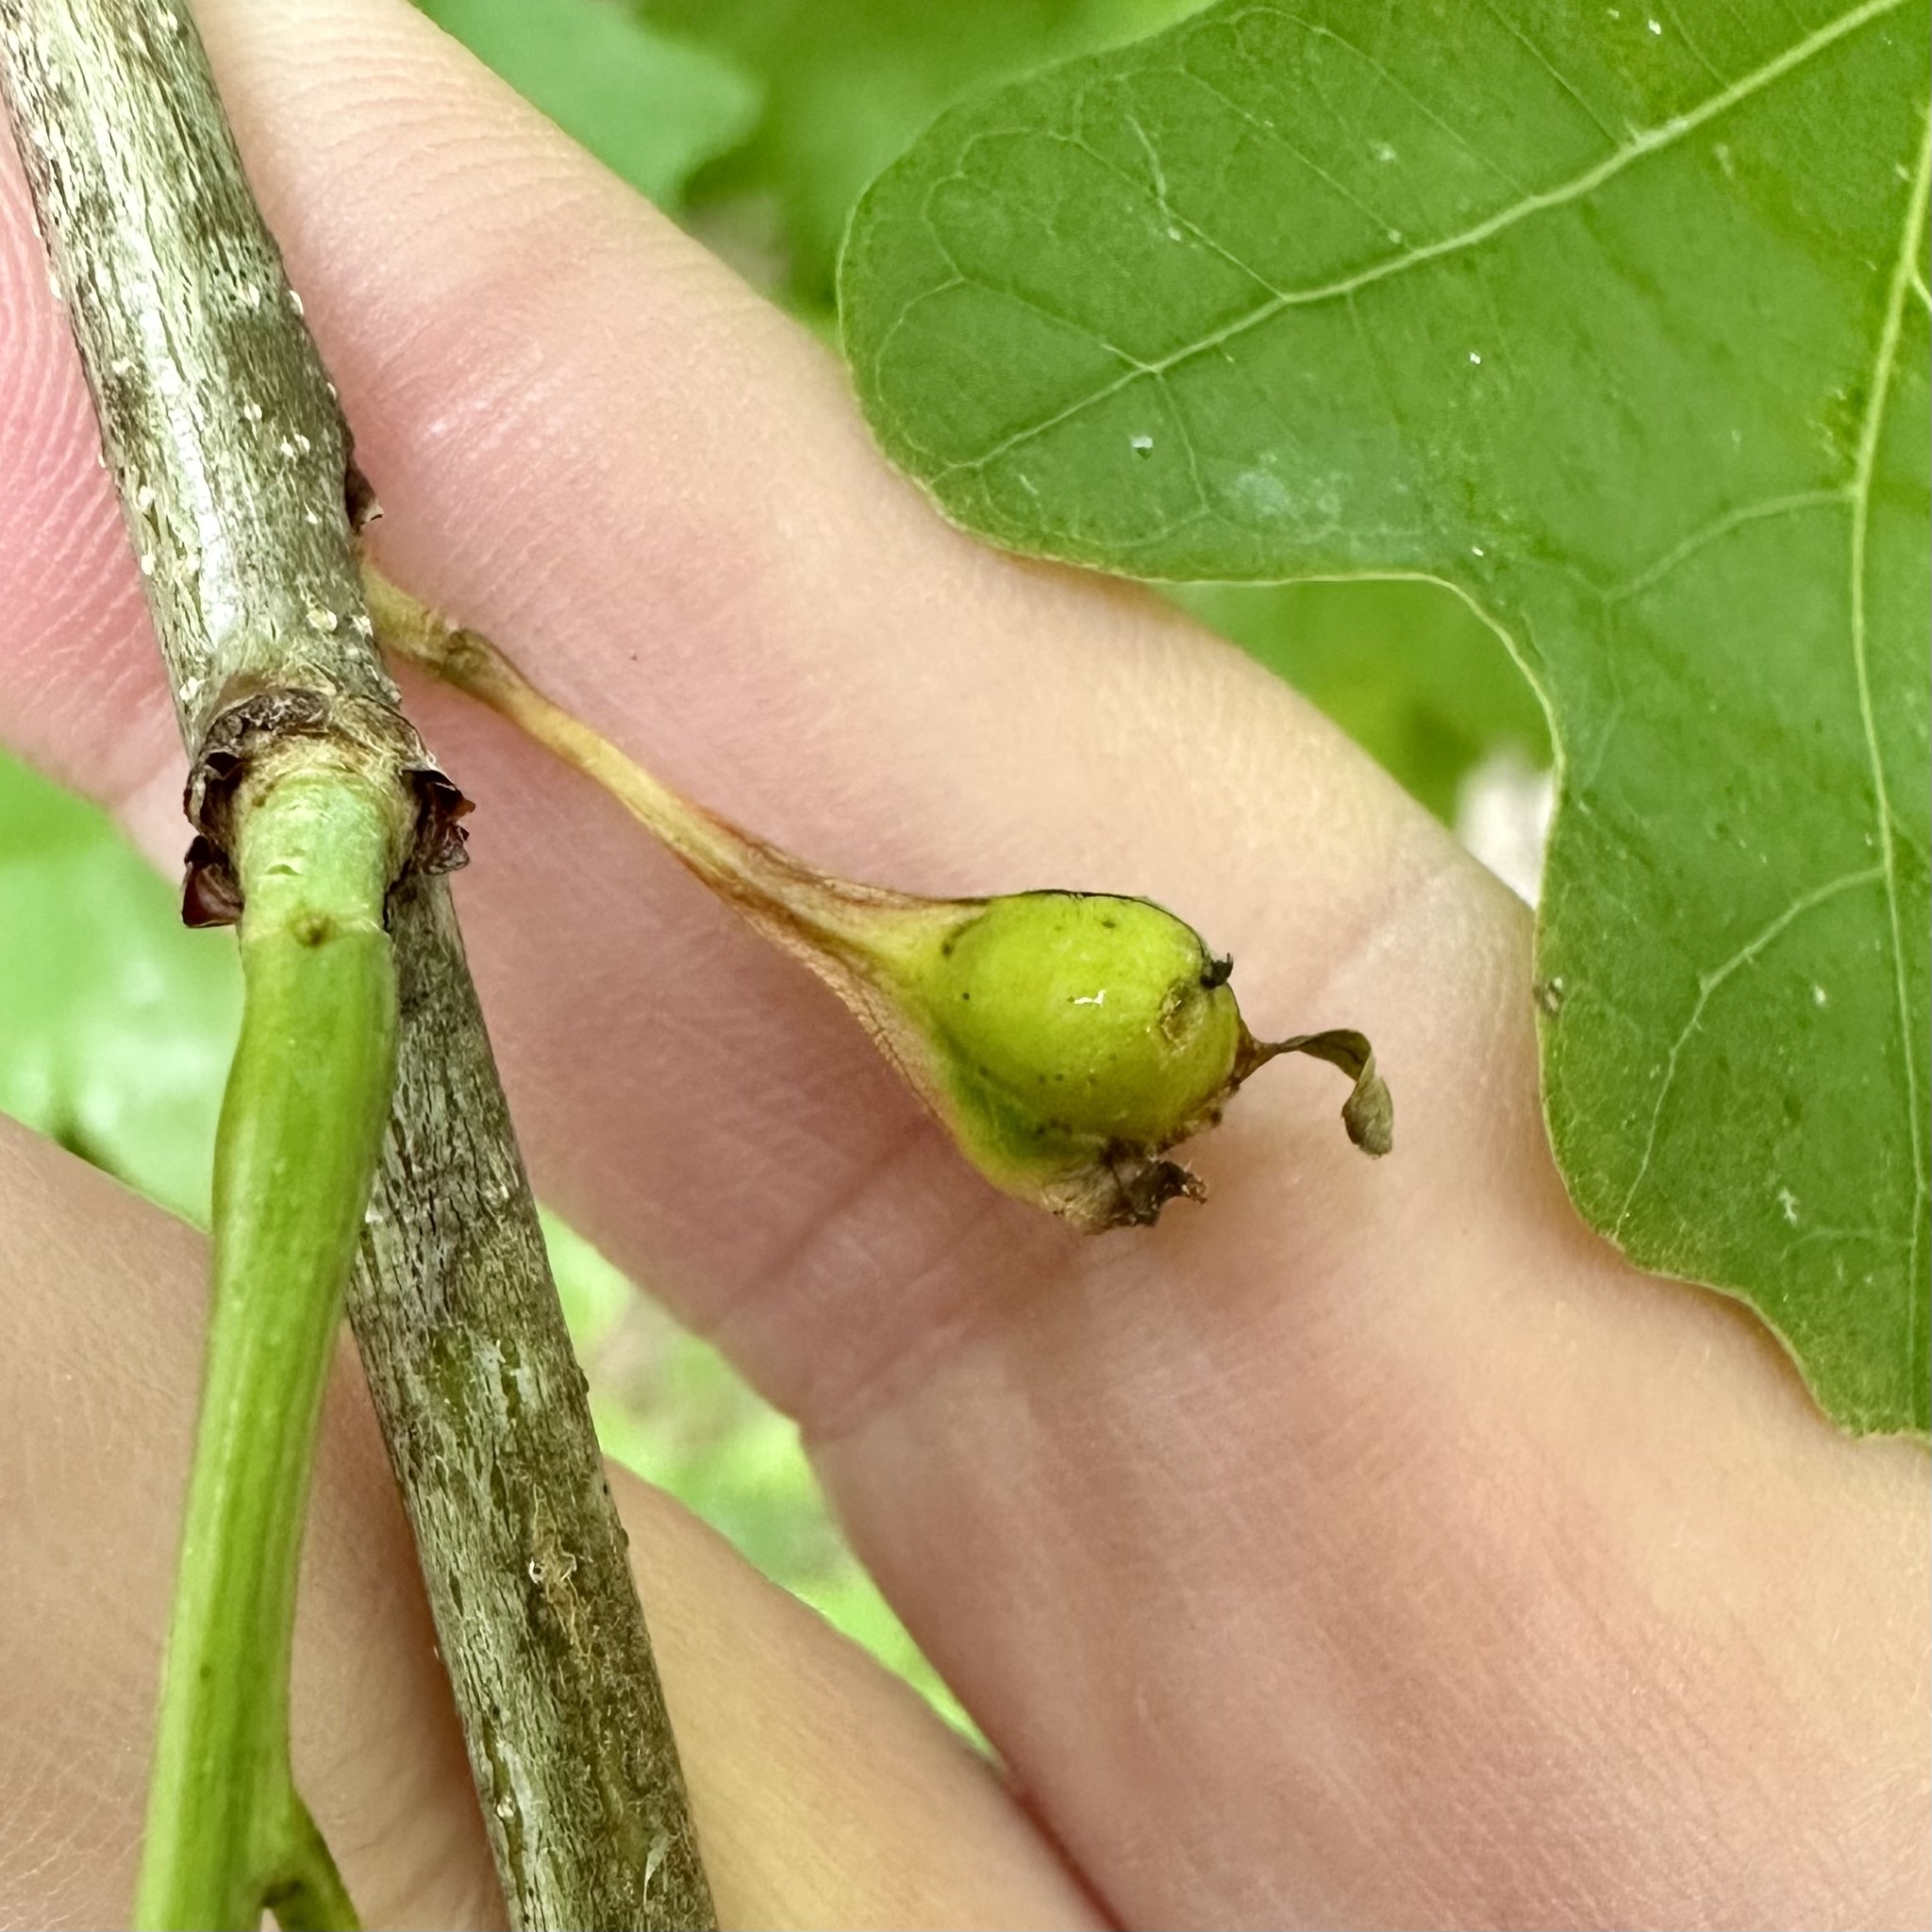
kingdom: Animalia
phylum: Arthropoda
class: Insecta
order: Hymenoptera
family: Cynipidae
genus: Andricus
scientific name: Andricus
